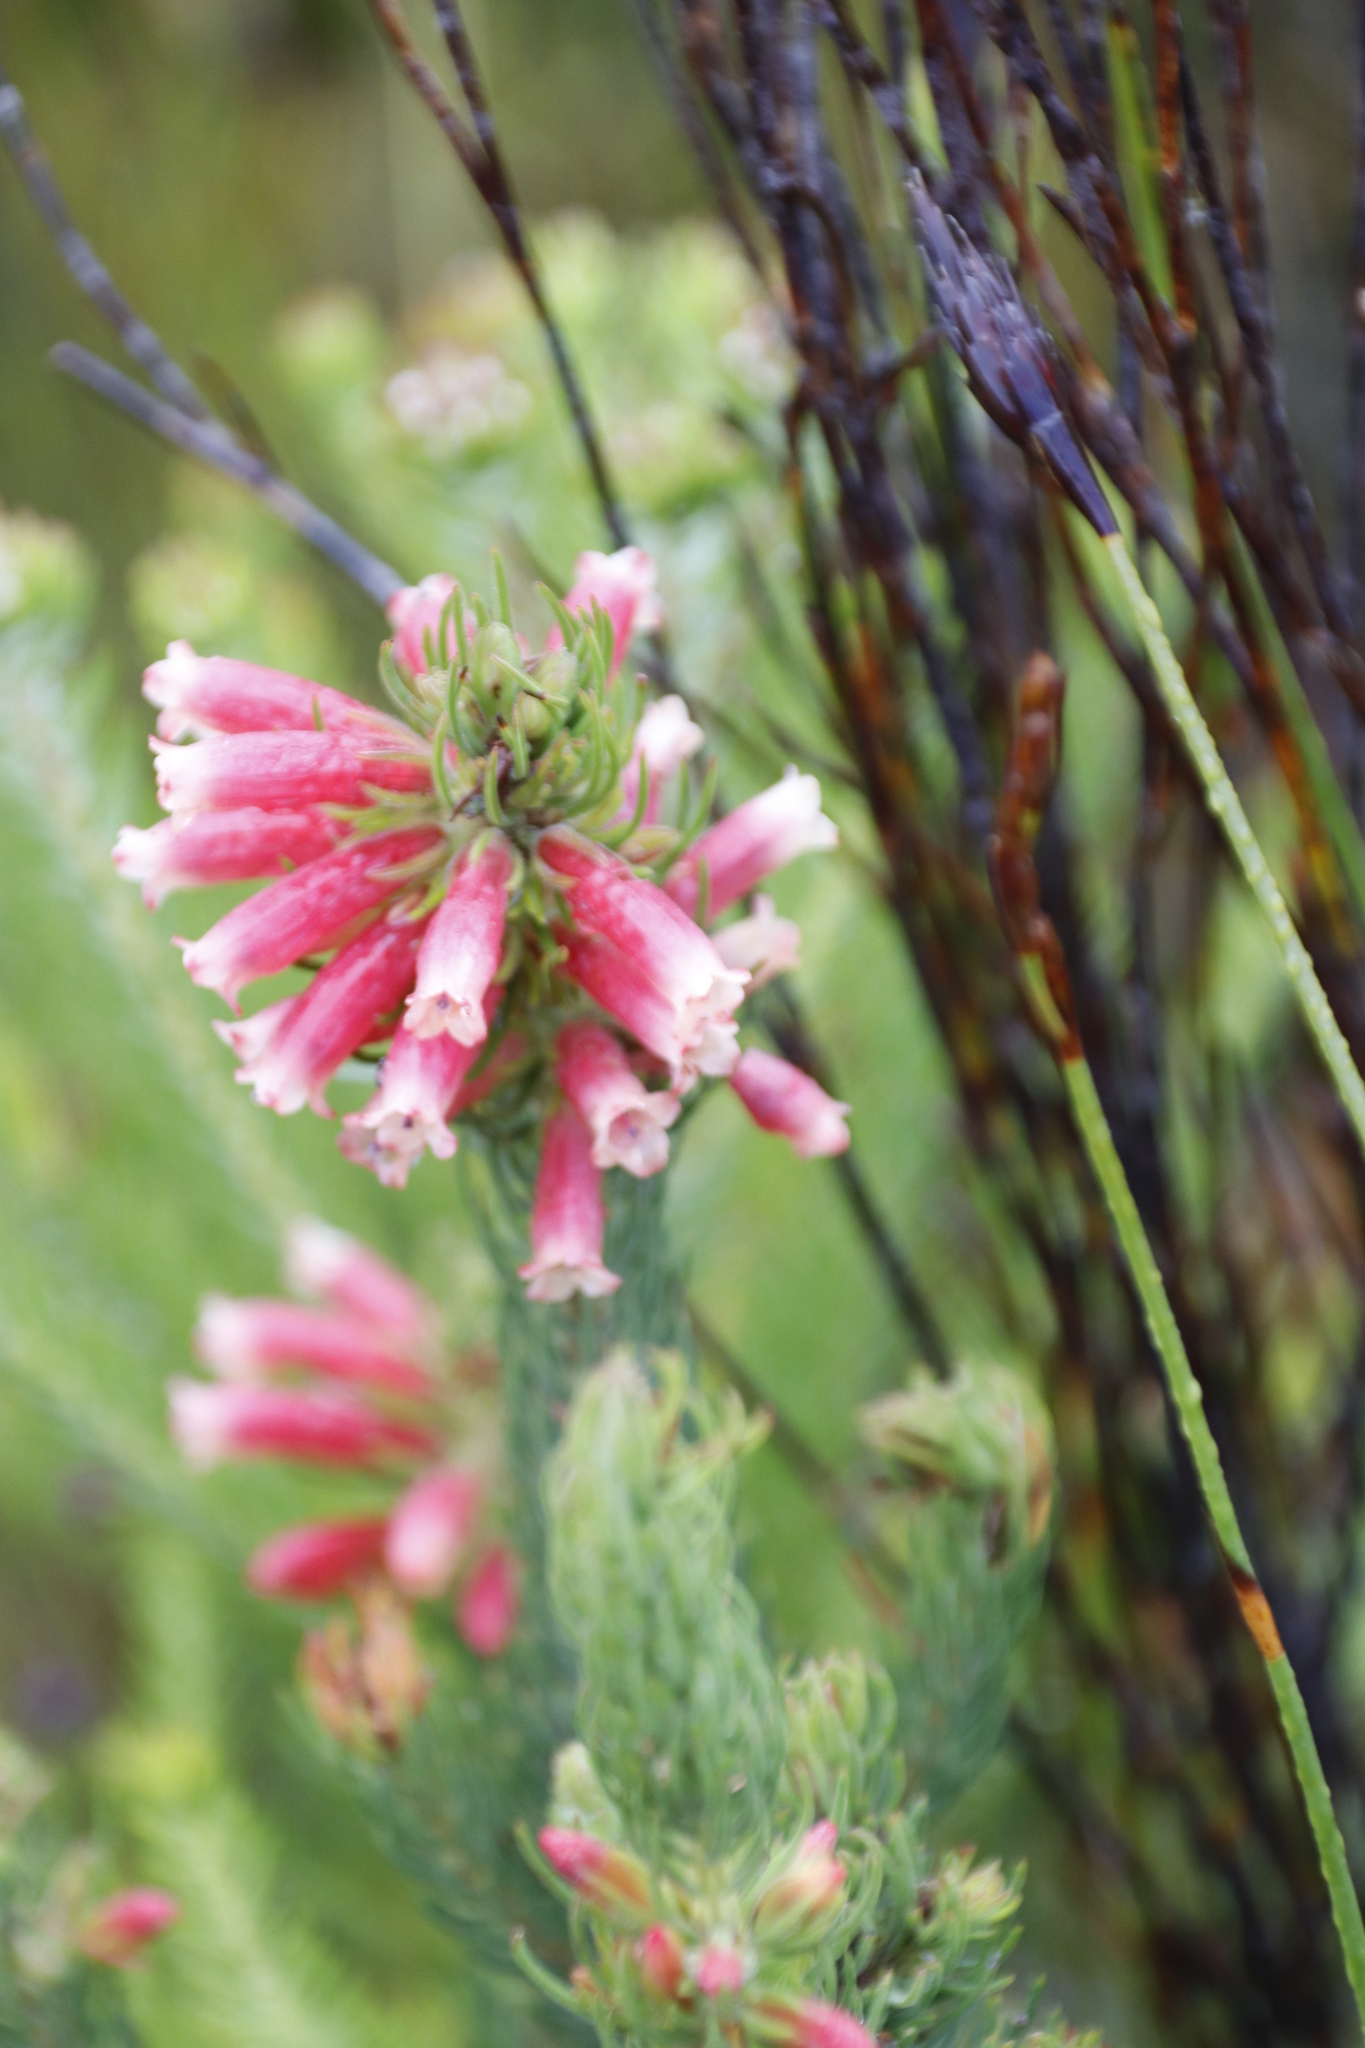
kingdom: Plantae
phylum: Tracheophyta
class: Magnoliopsida
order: Ericales
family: Ericaceae
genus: Erica
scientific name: Erica viscaria
